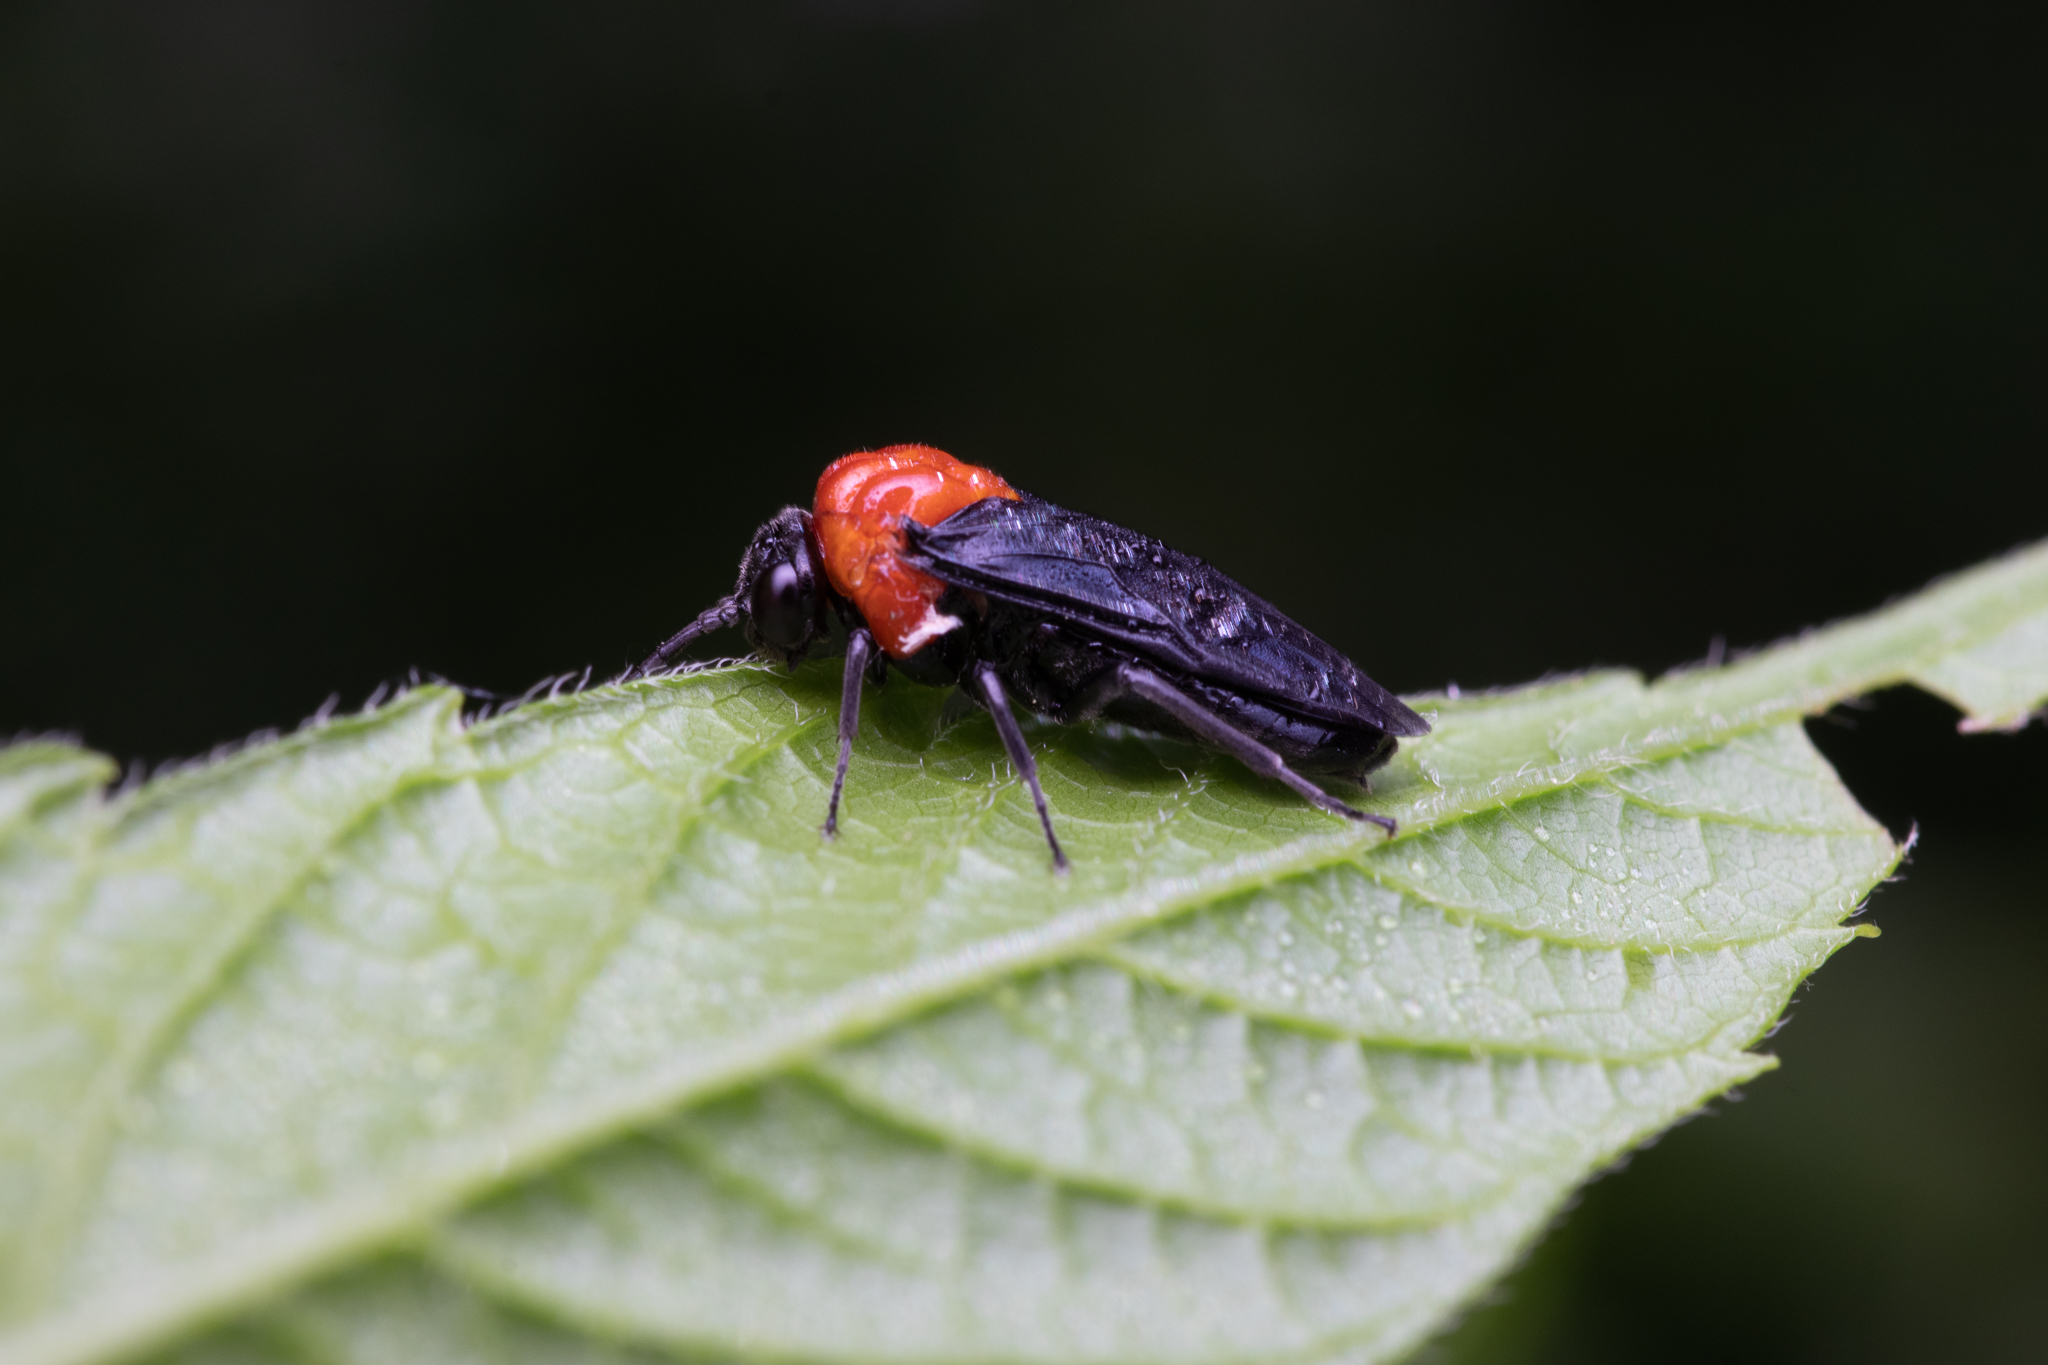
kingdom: Animalia
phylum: Arthropoda
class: Insecta
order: Hymenoptera
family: Tenthredinidae
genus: Tethida
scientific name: Tethida barda
